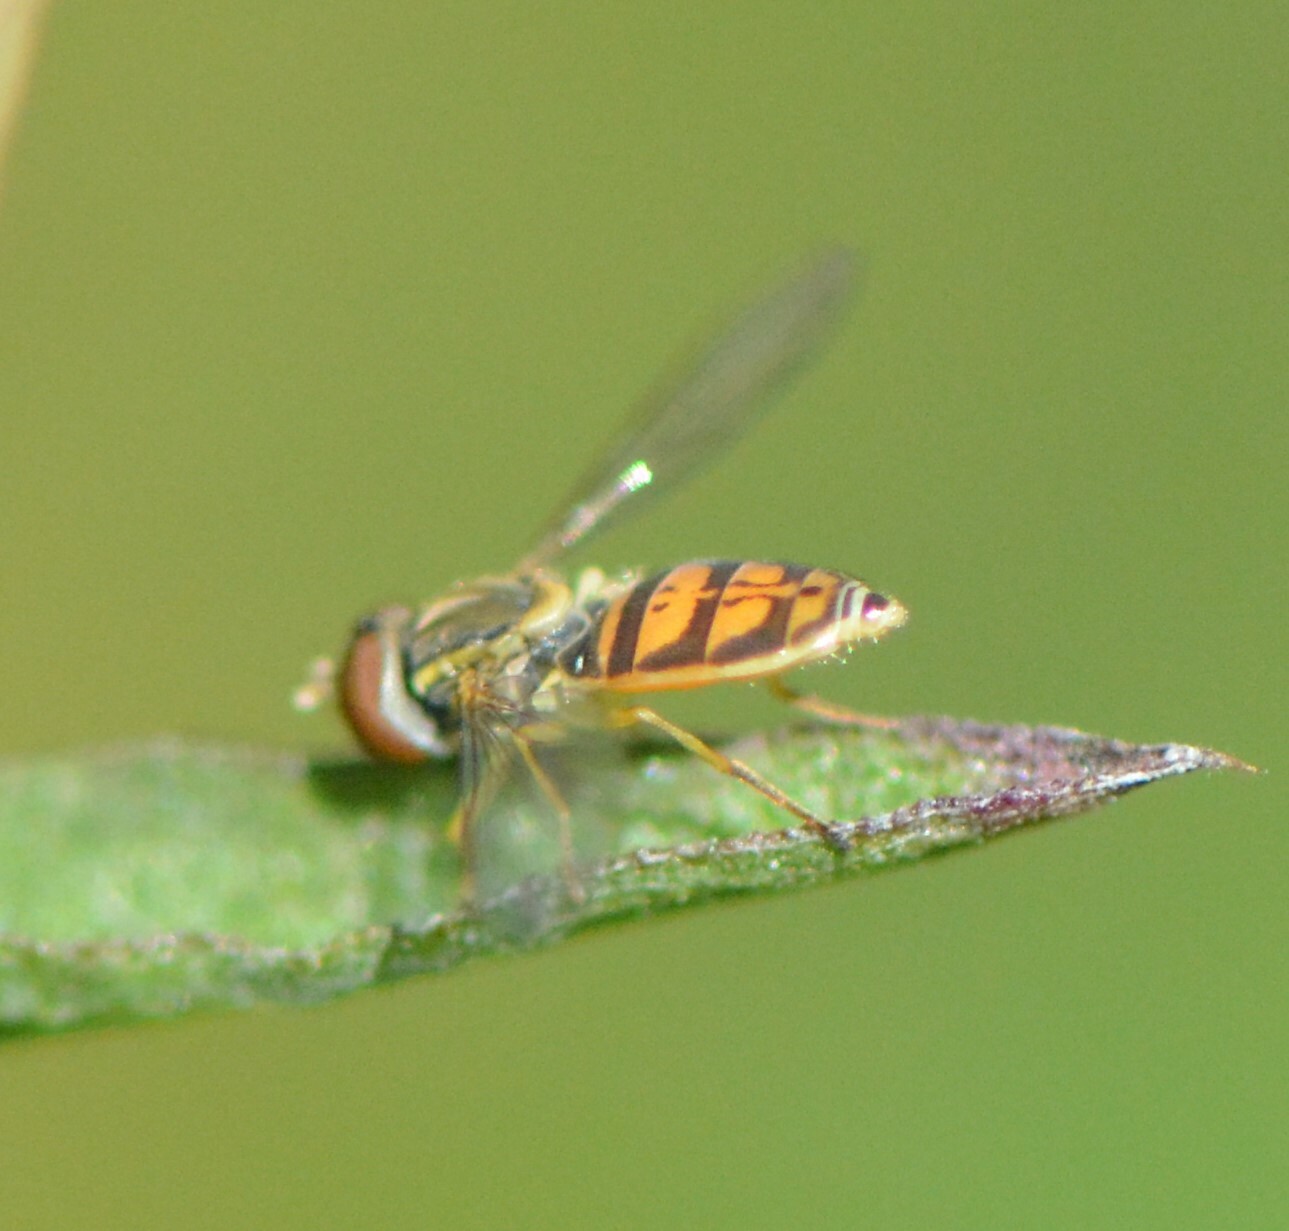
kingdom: Animalia
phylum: Arthropoda
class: Insecta
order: Diptera
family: Syrphidae
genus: Toxomerus
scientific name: Toxomerus marginatus
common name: Syrphid fly
